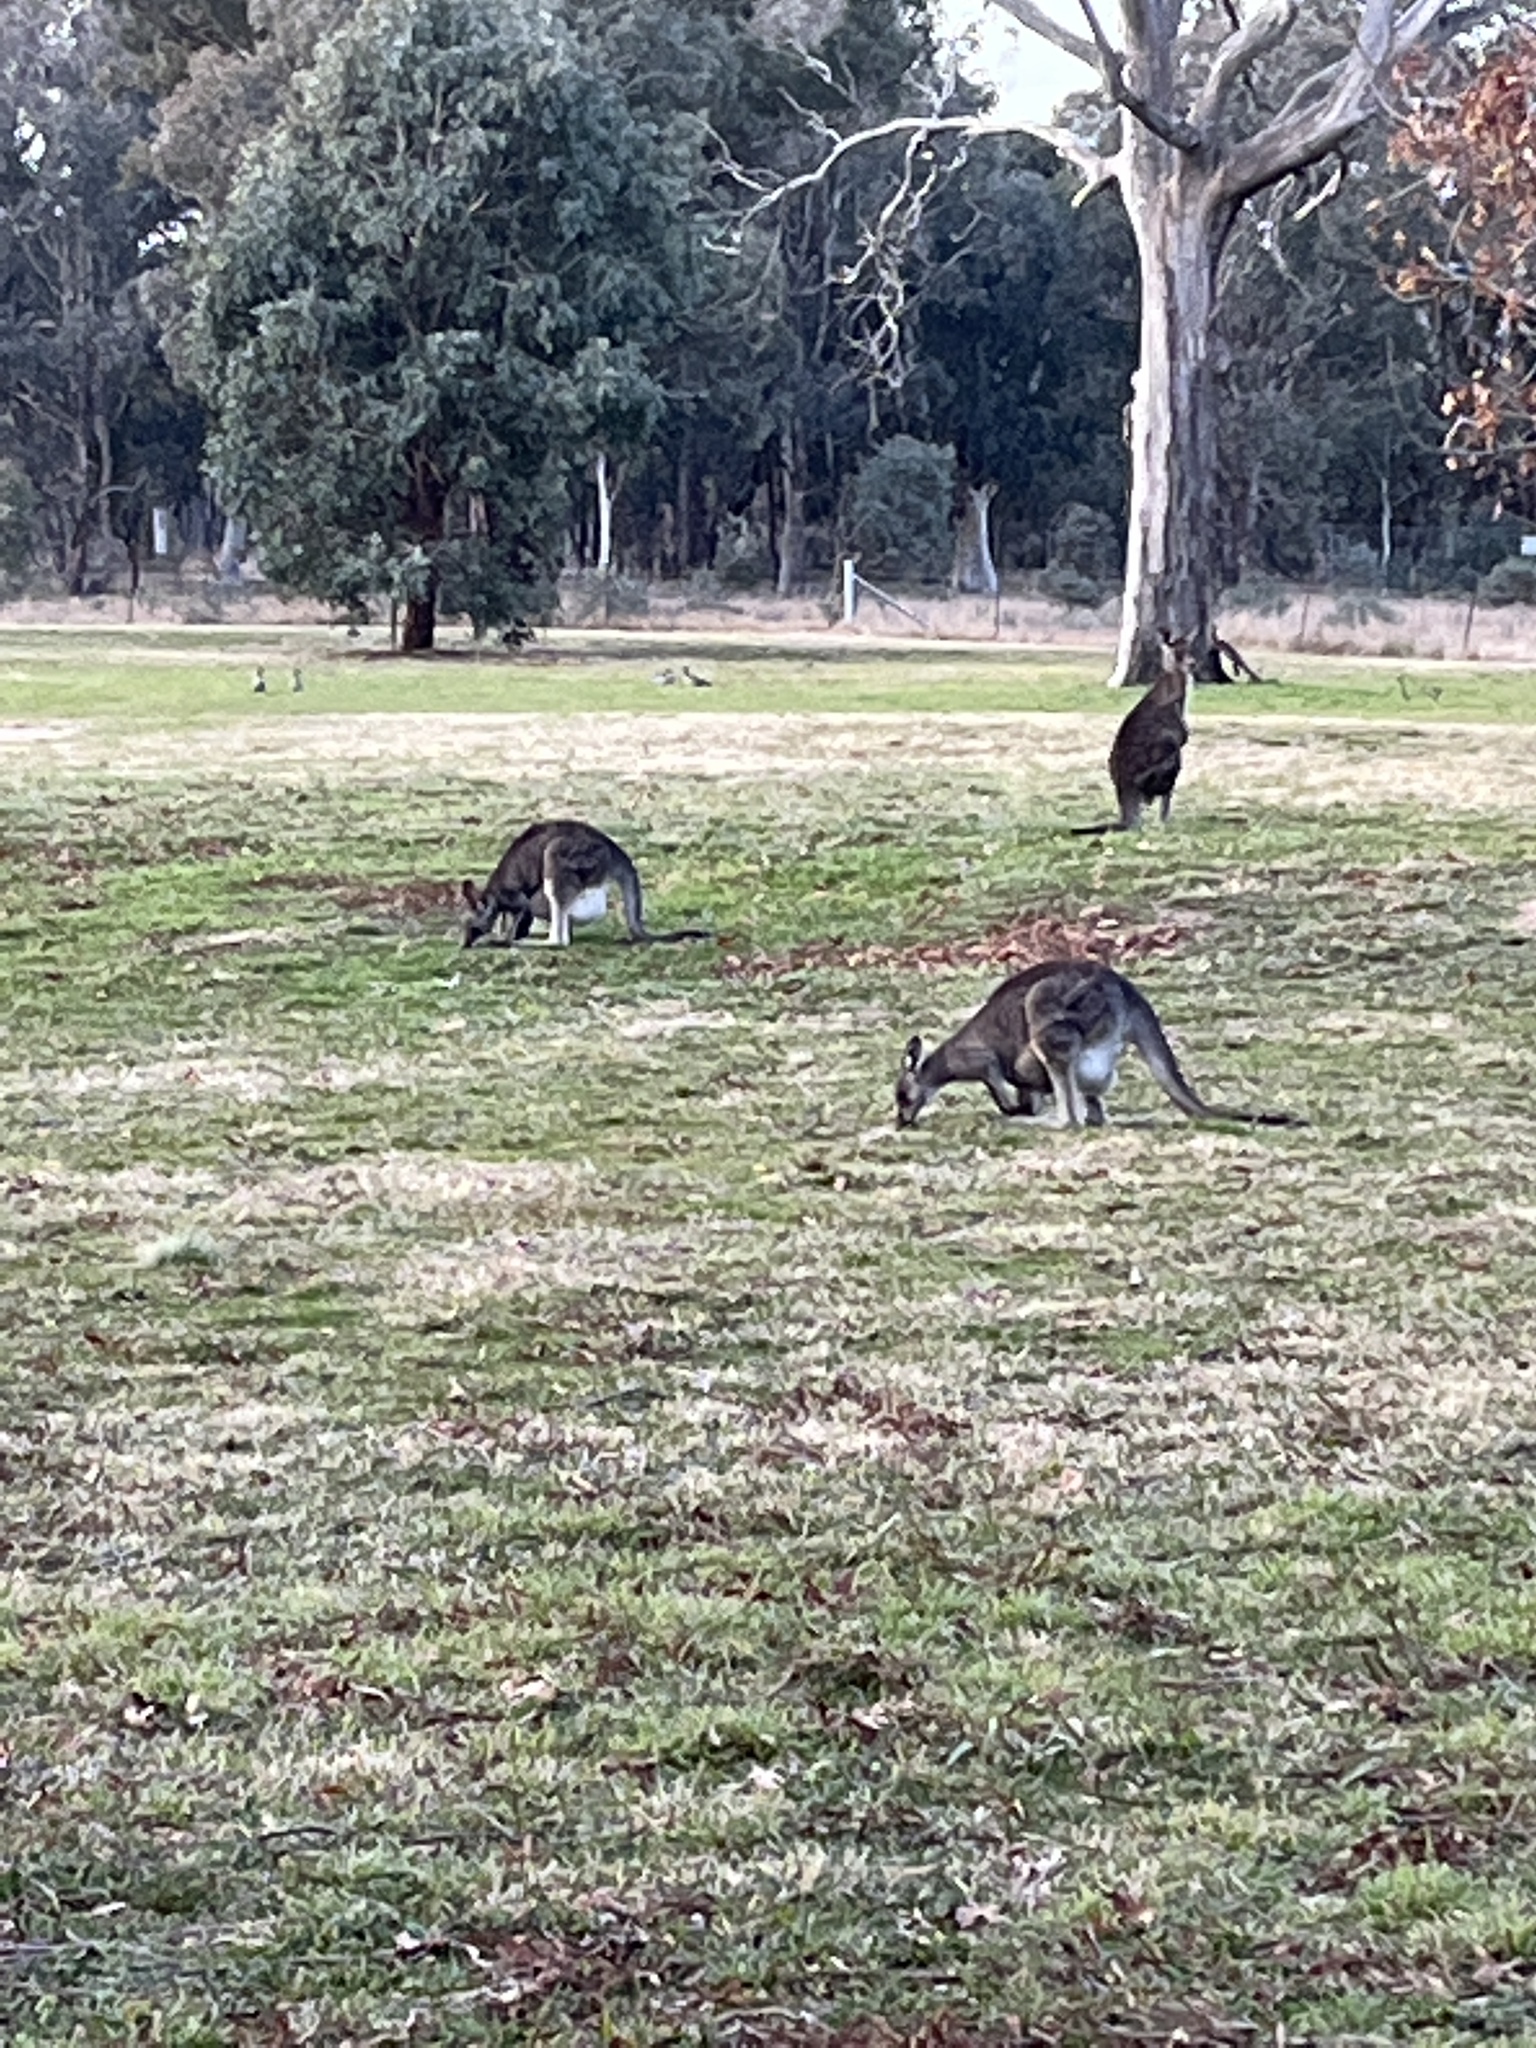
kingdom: Animalia
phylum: Chordata
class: Mammalia
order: Diprotodontia
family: Macropodidae
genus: Macropus
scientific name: Macropus giganteus
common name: Eastern grey kangaroo
